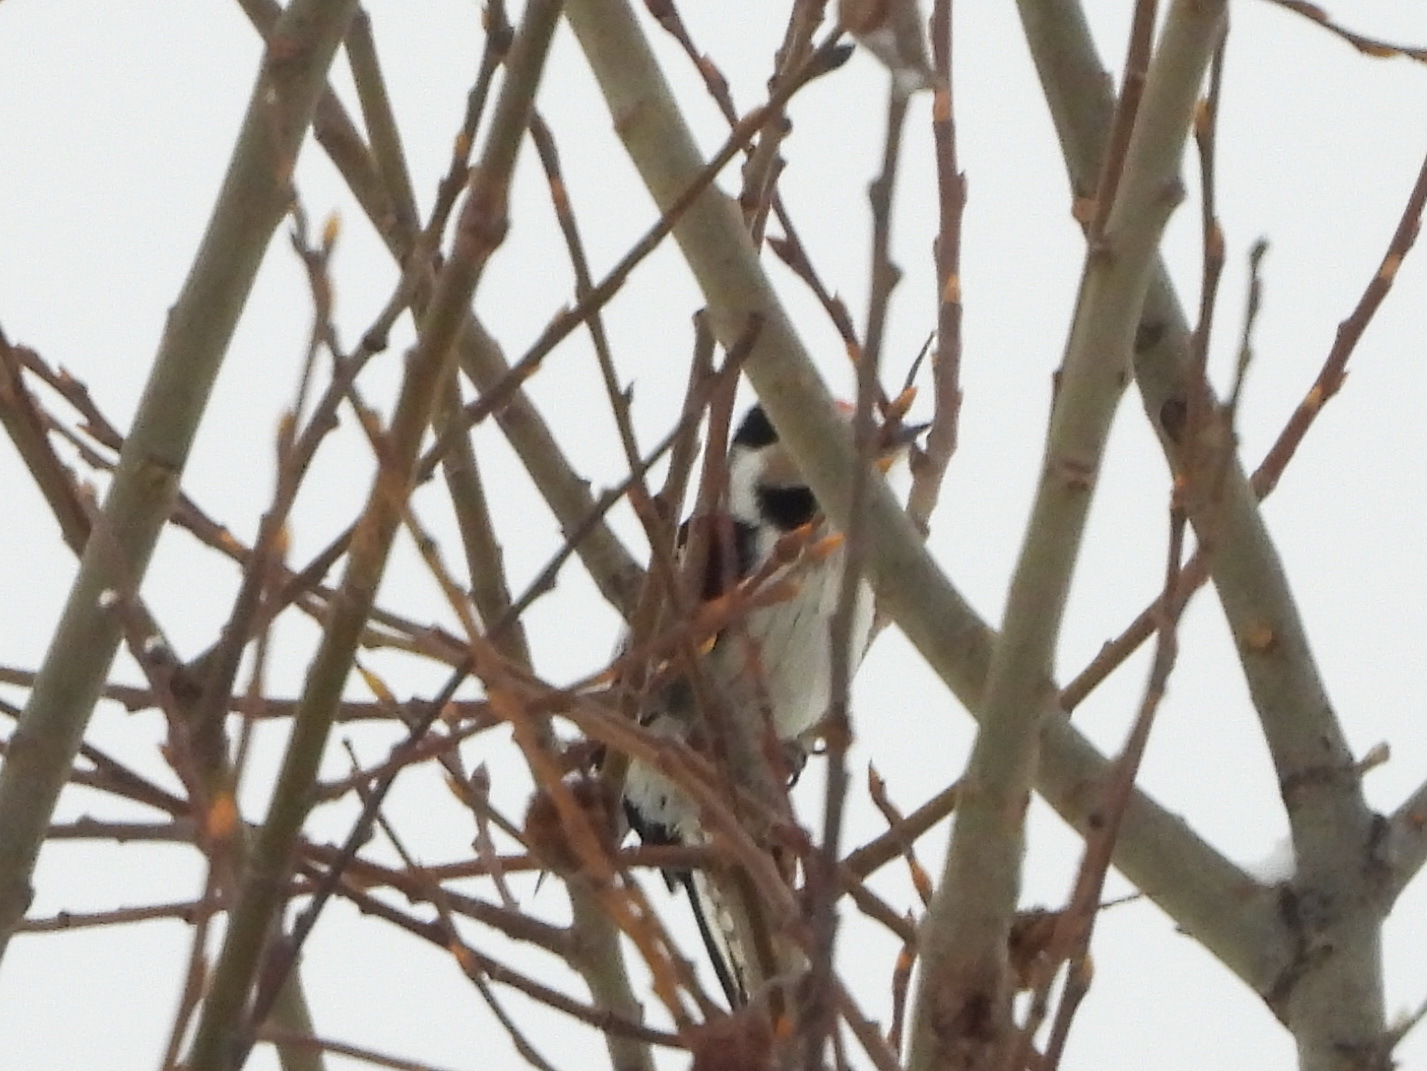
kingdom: Animalia
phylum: Chordata
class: Aves
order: Piciformes
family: Picidae
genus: Dryobates
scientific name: Dryobates minor
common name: Lesser spotted woodpecker
